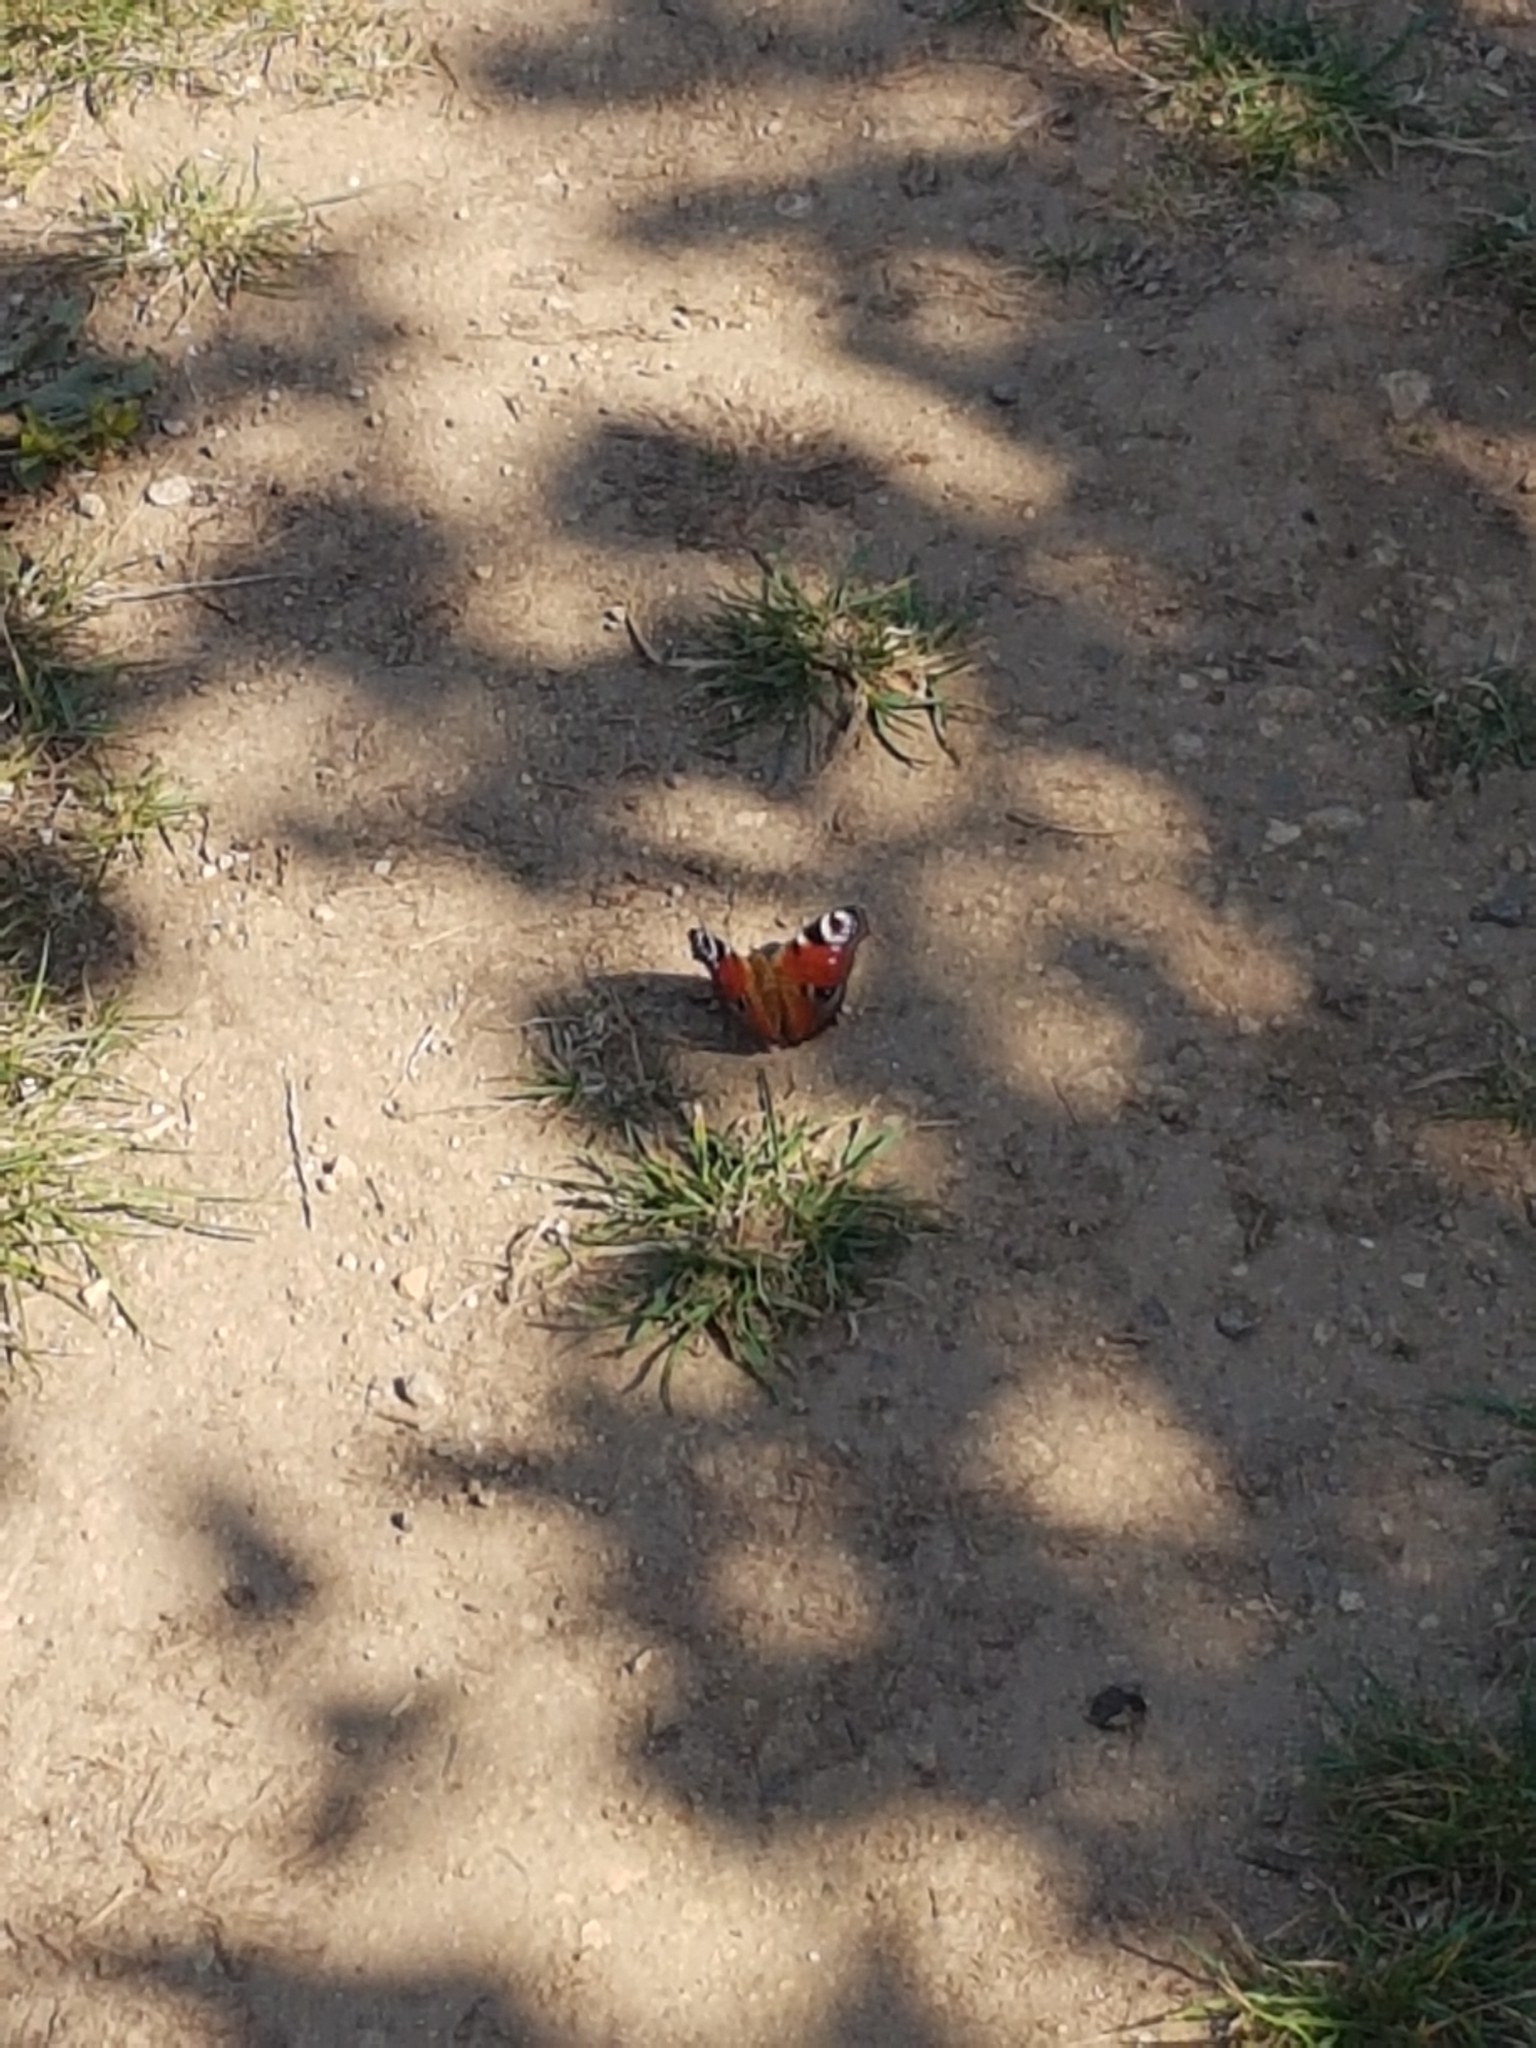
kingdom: Animalia
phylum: Arthropoda
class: Insecta
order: Lepidoptera
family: Nymphalidae
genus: Aglais
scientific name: Aglais io
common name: Peacock
